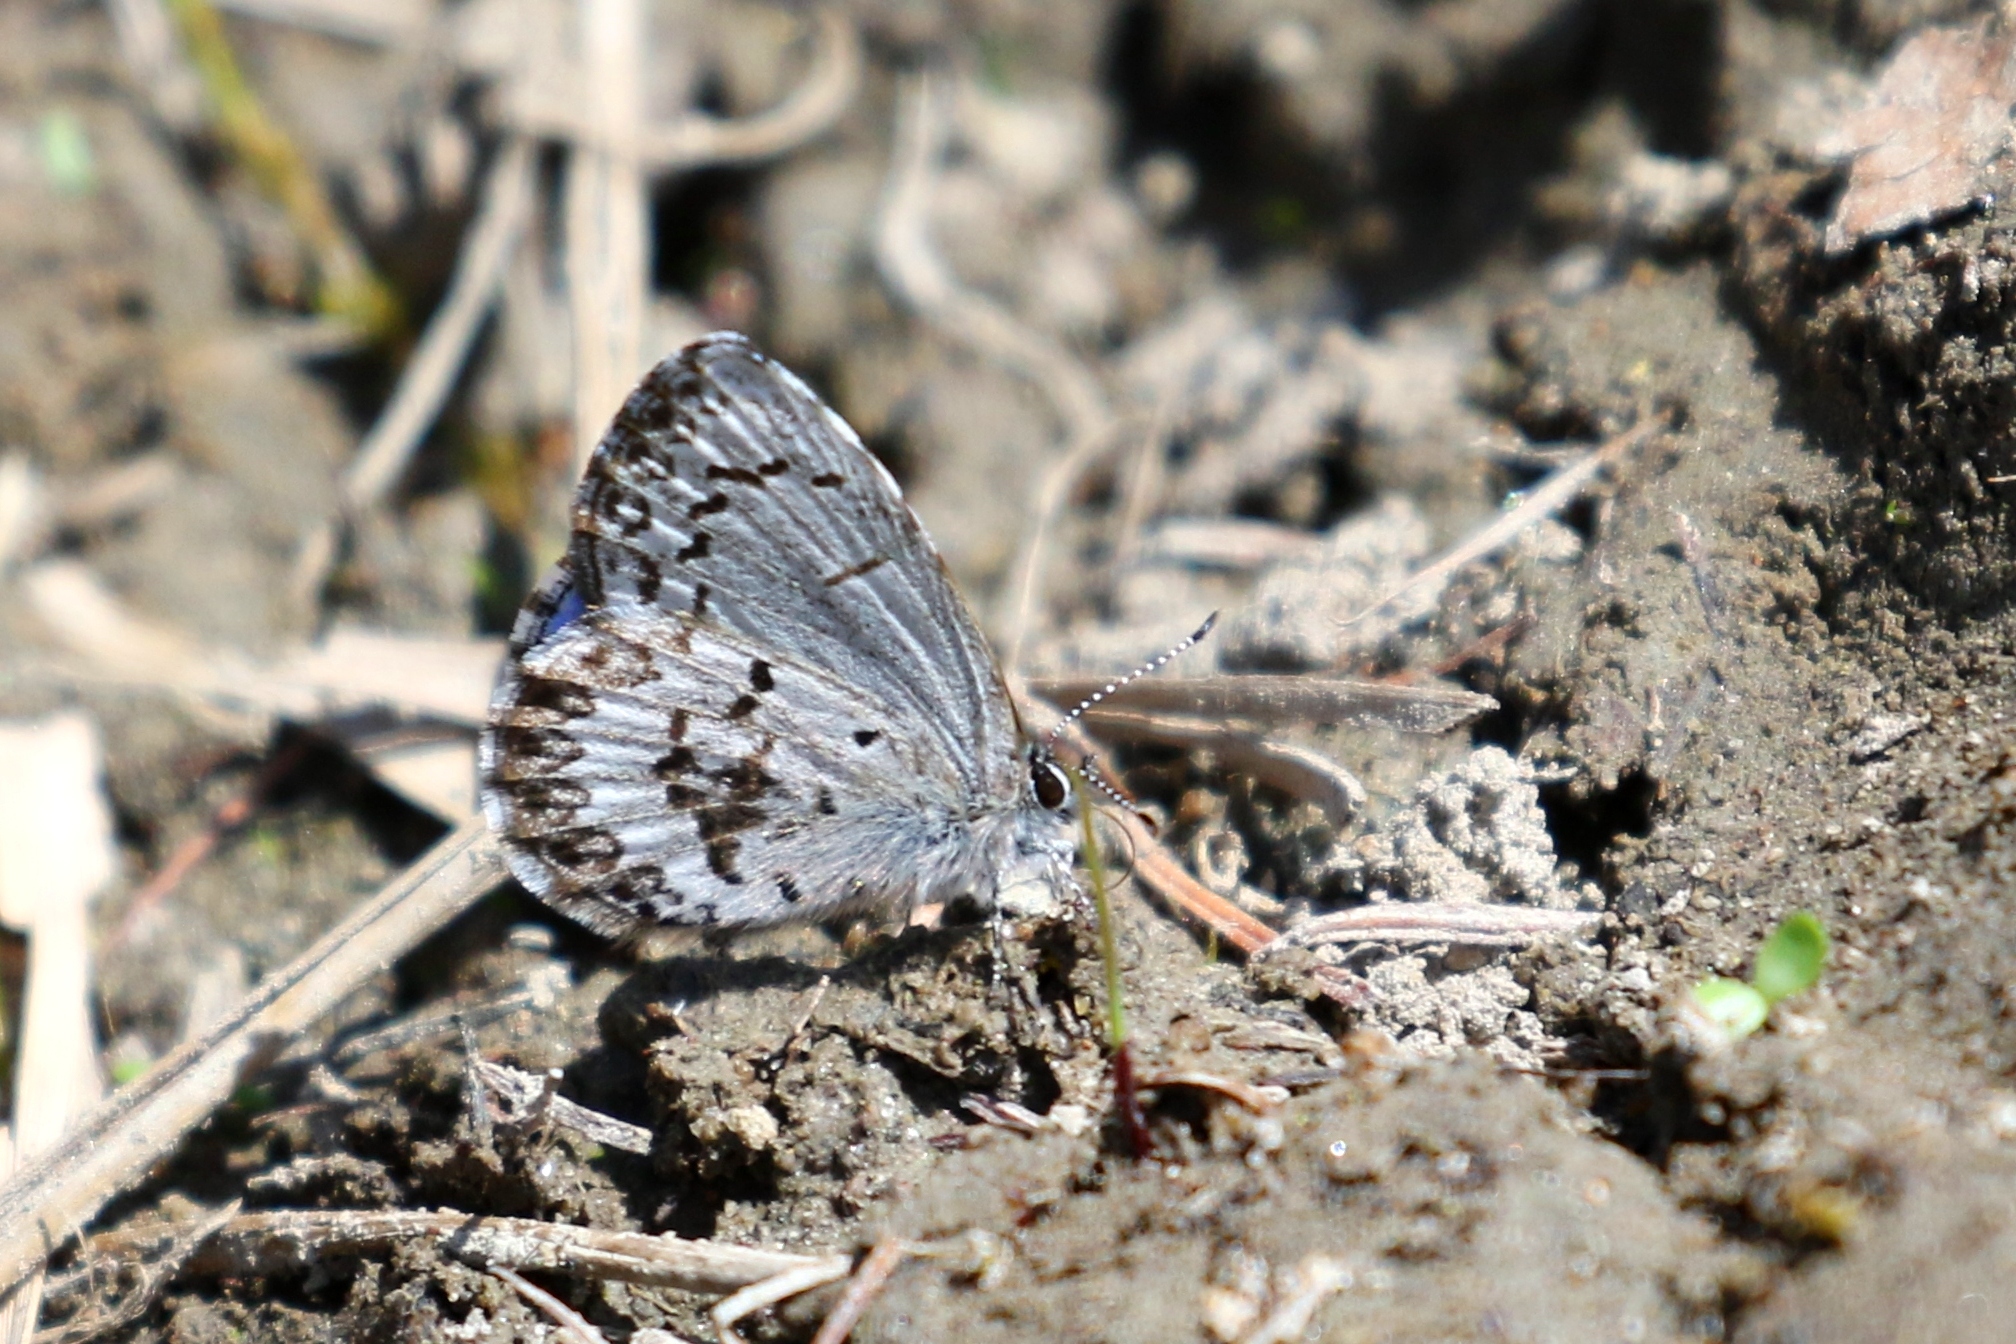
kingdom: Animalia
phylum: Arthropoda
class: Insecta
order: Lepidoptera
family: Lycaenidae
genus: Celastrina
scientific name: Celastrina lucia
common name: Lucia azure
